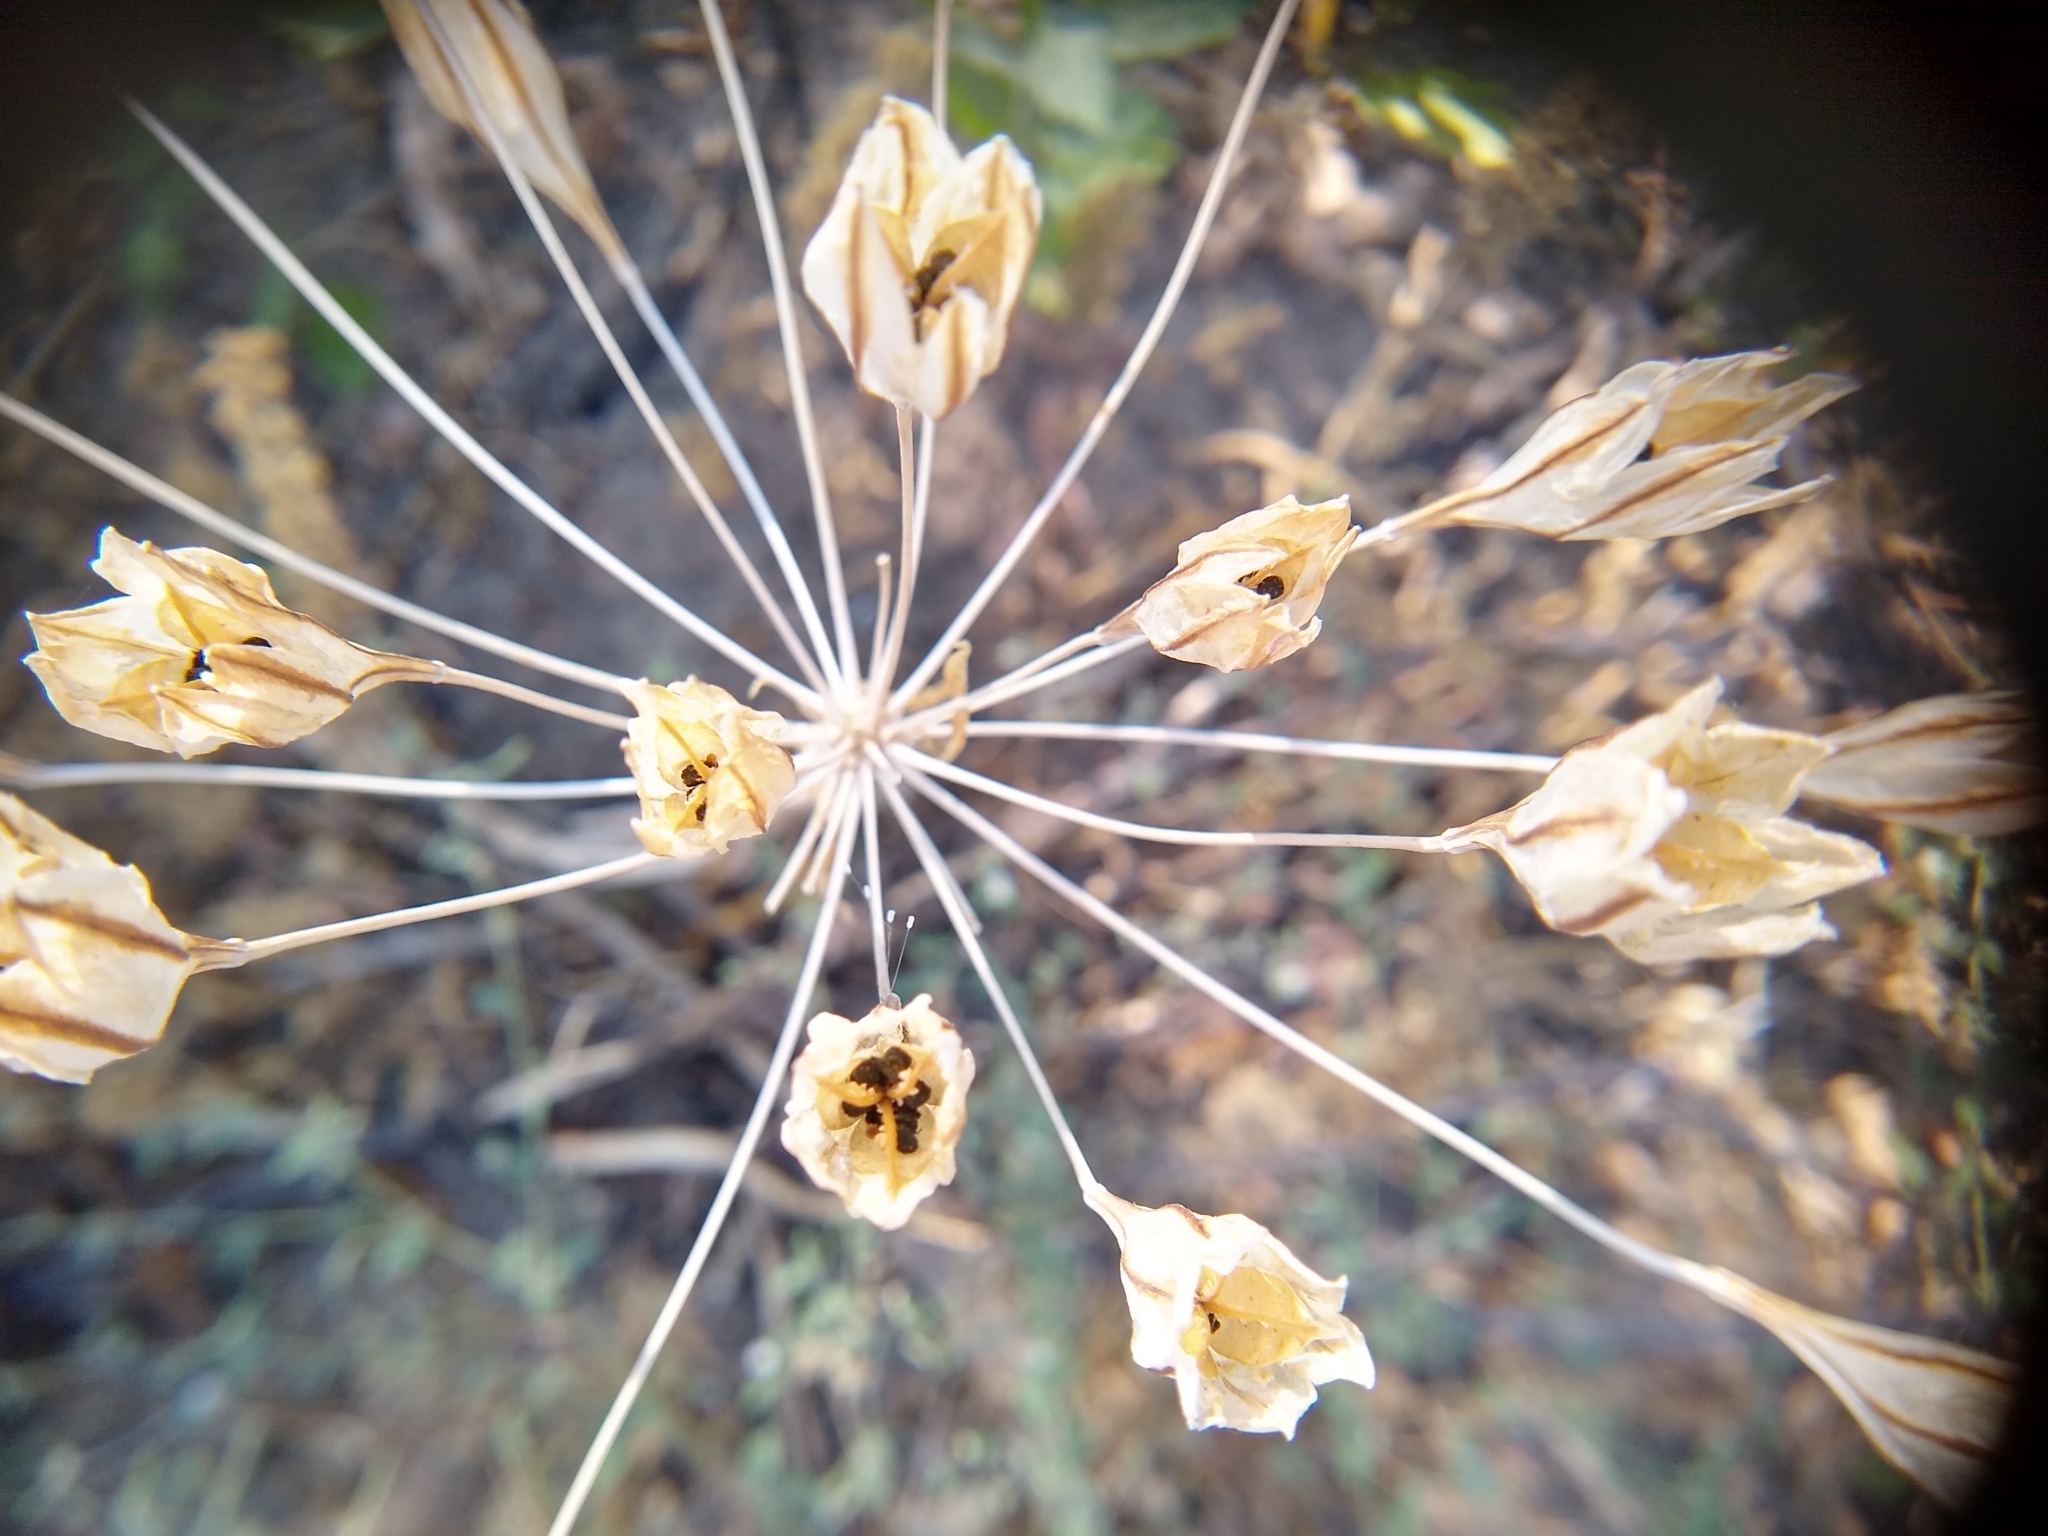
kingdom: Plantae
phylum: Tracheophyta
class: Liliopsida
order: Asparagales
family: Asparagaceae
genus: Triteleia
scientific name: Triteleia laxa
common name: Triplet-lily
